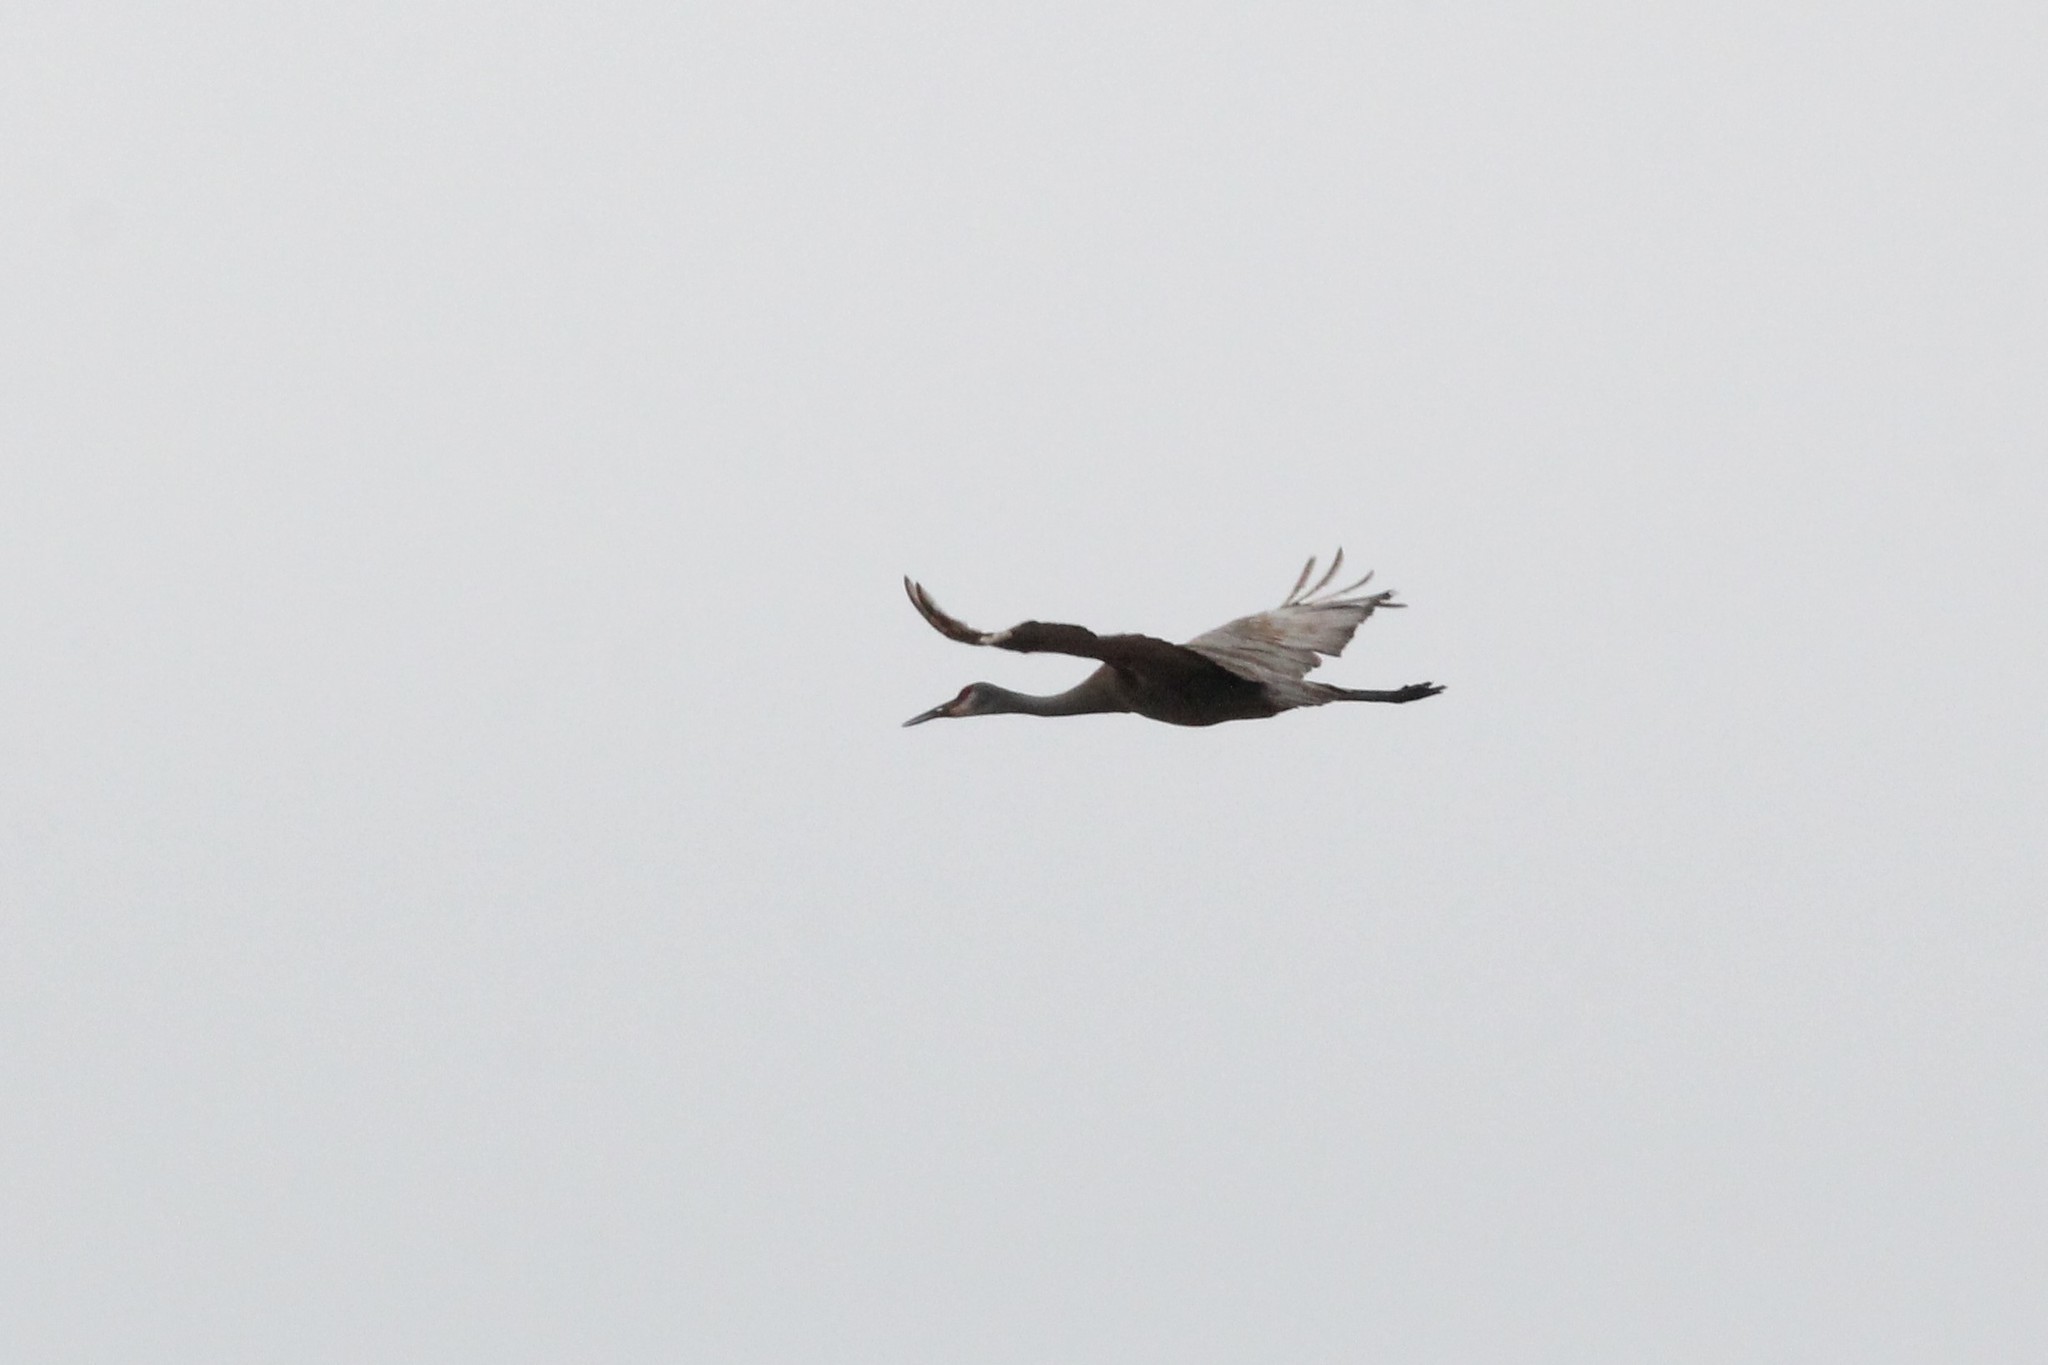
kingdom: Animalia
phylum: Chordata
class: Aves
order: Gruiformes
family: Gruidae
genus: Grus
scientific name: Grus canadensis
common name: Sandhill crane
